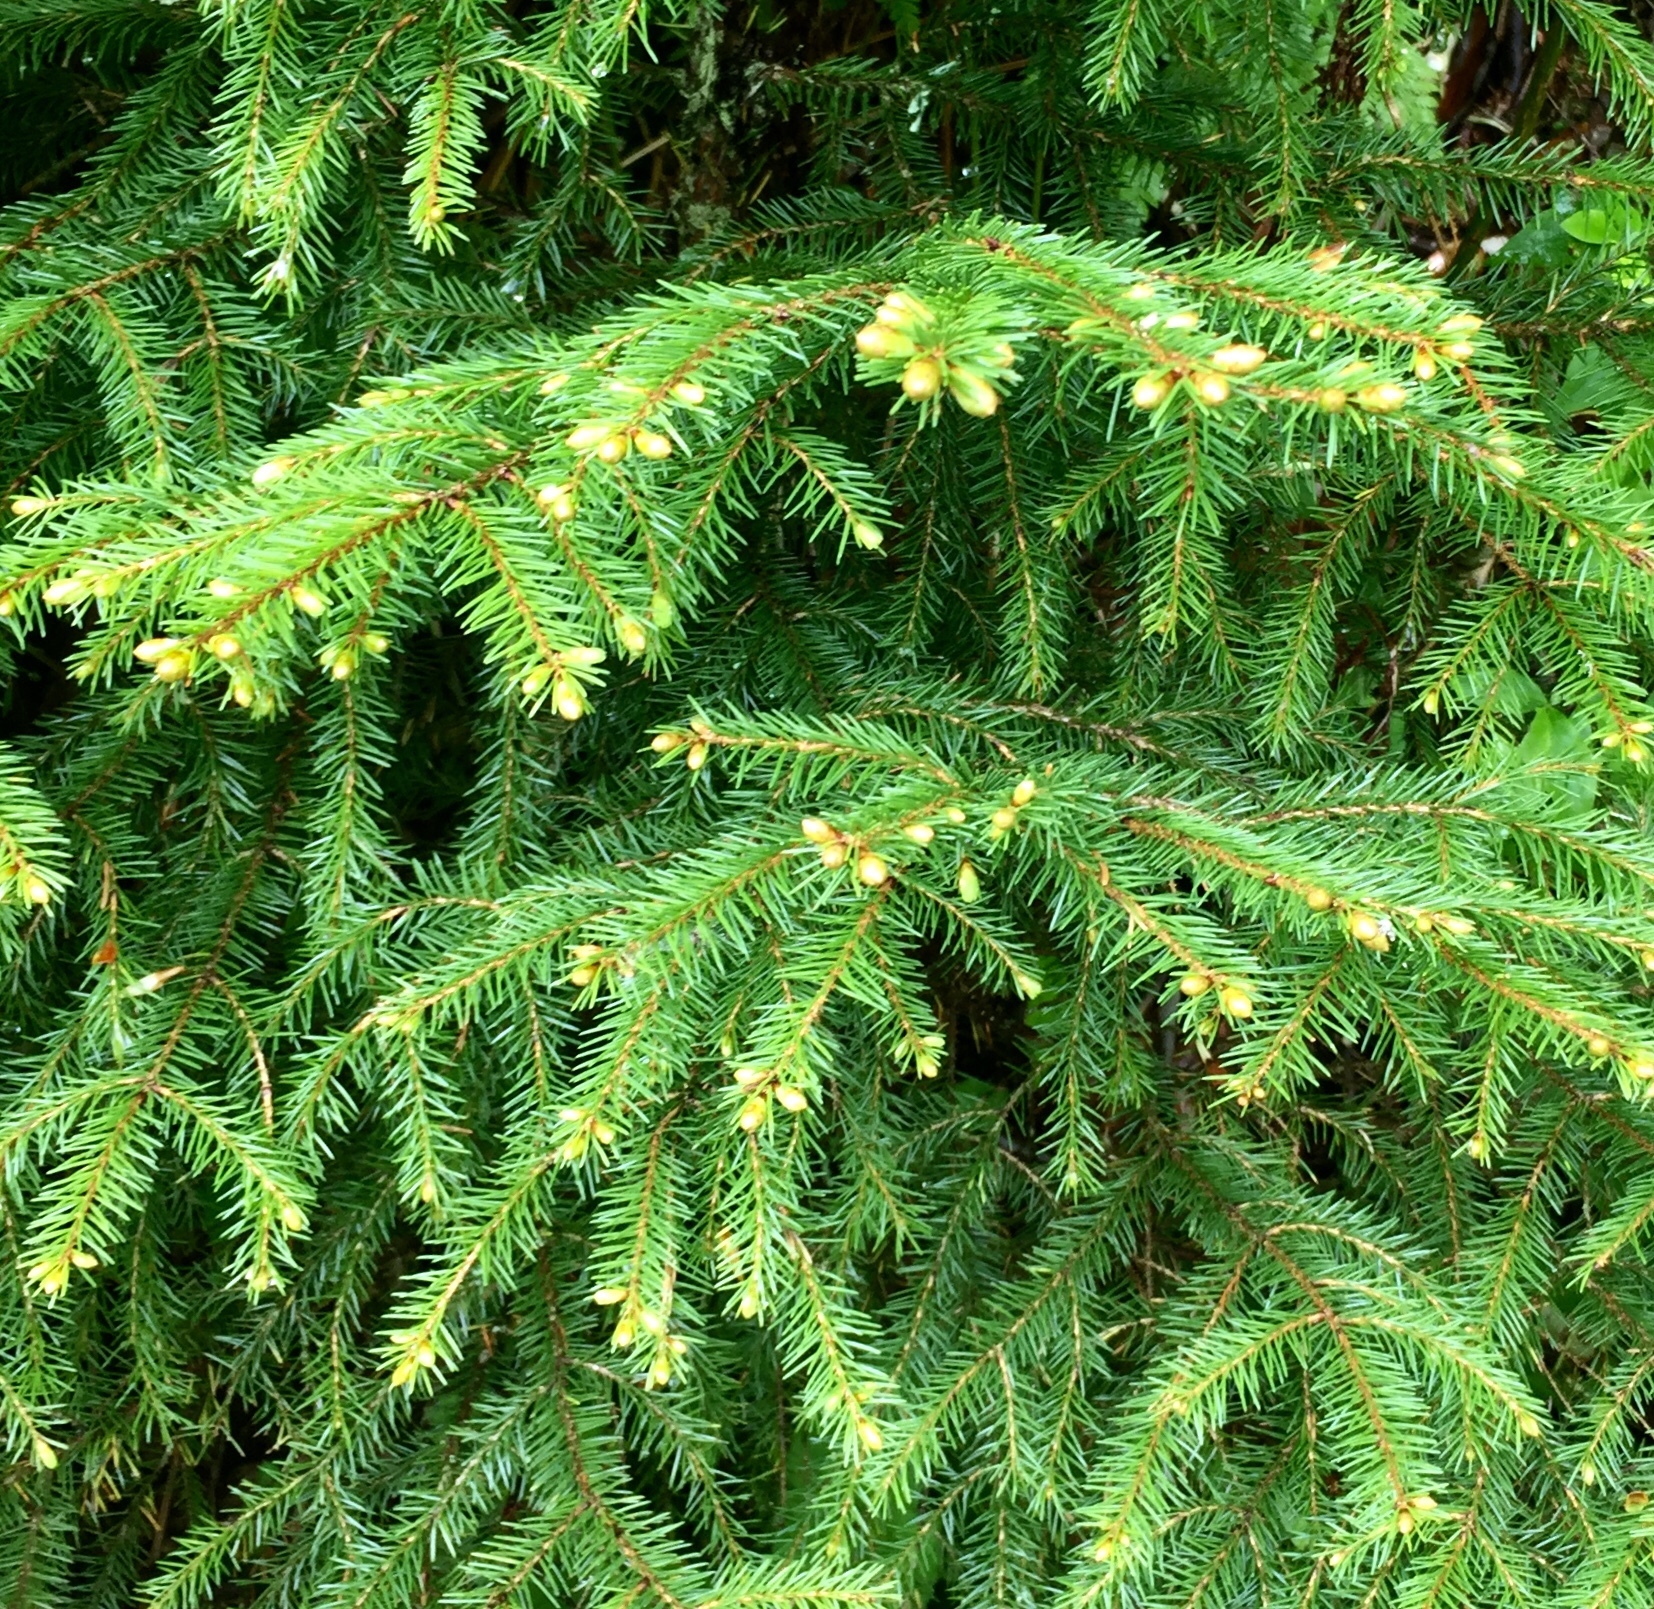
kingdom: Plantae
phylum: Tracheophyta
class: Pinopsida
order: Pinales
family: Pinaceae
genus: Picea
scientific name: Picea rubens
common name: Red spruce
